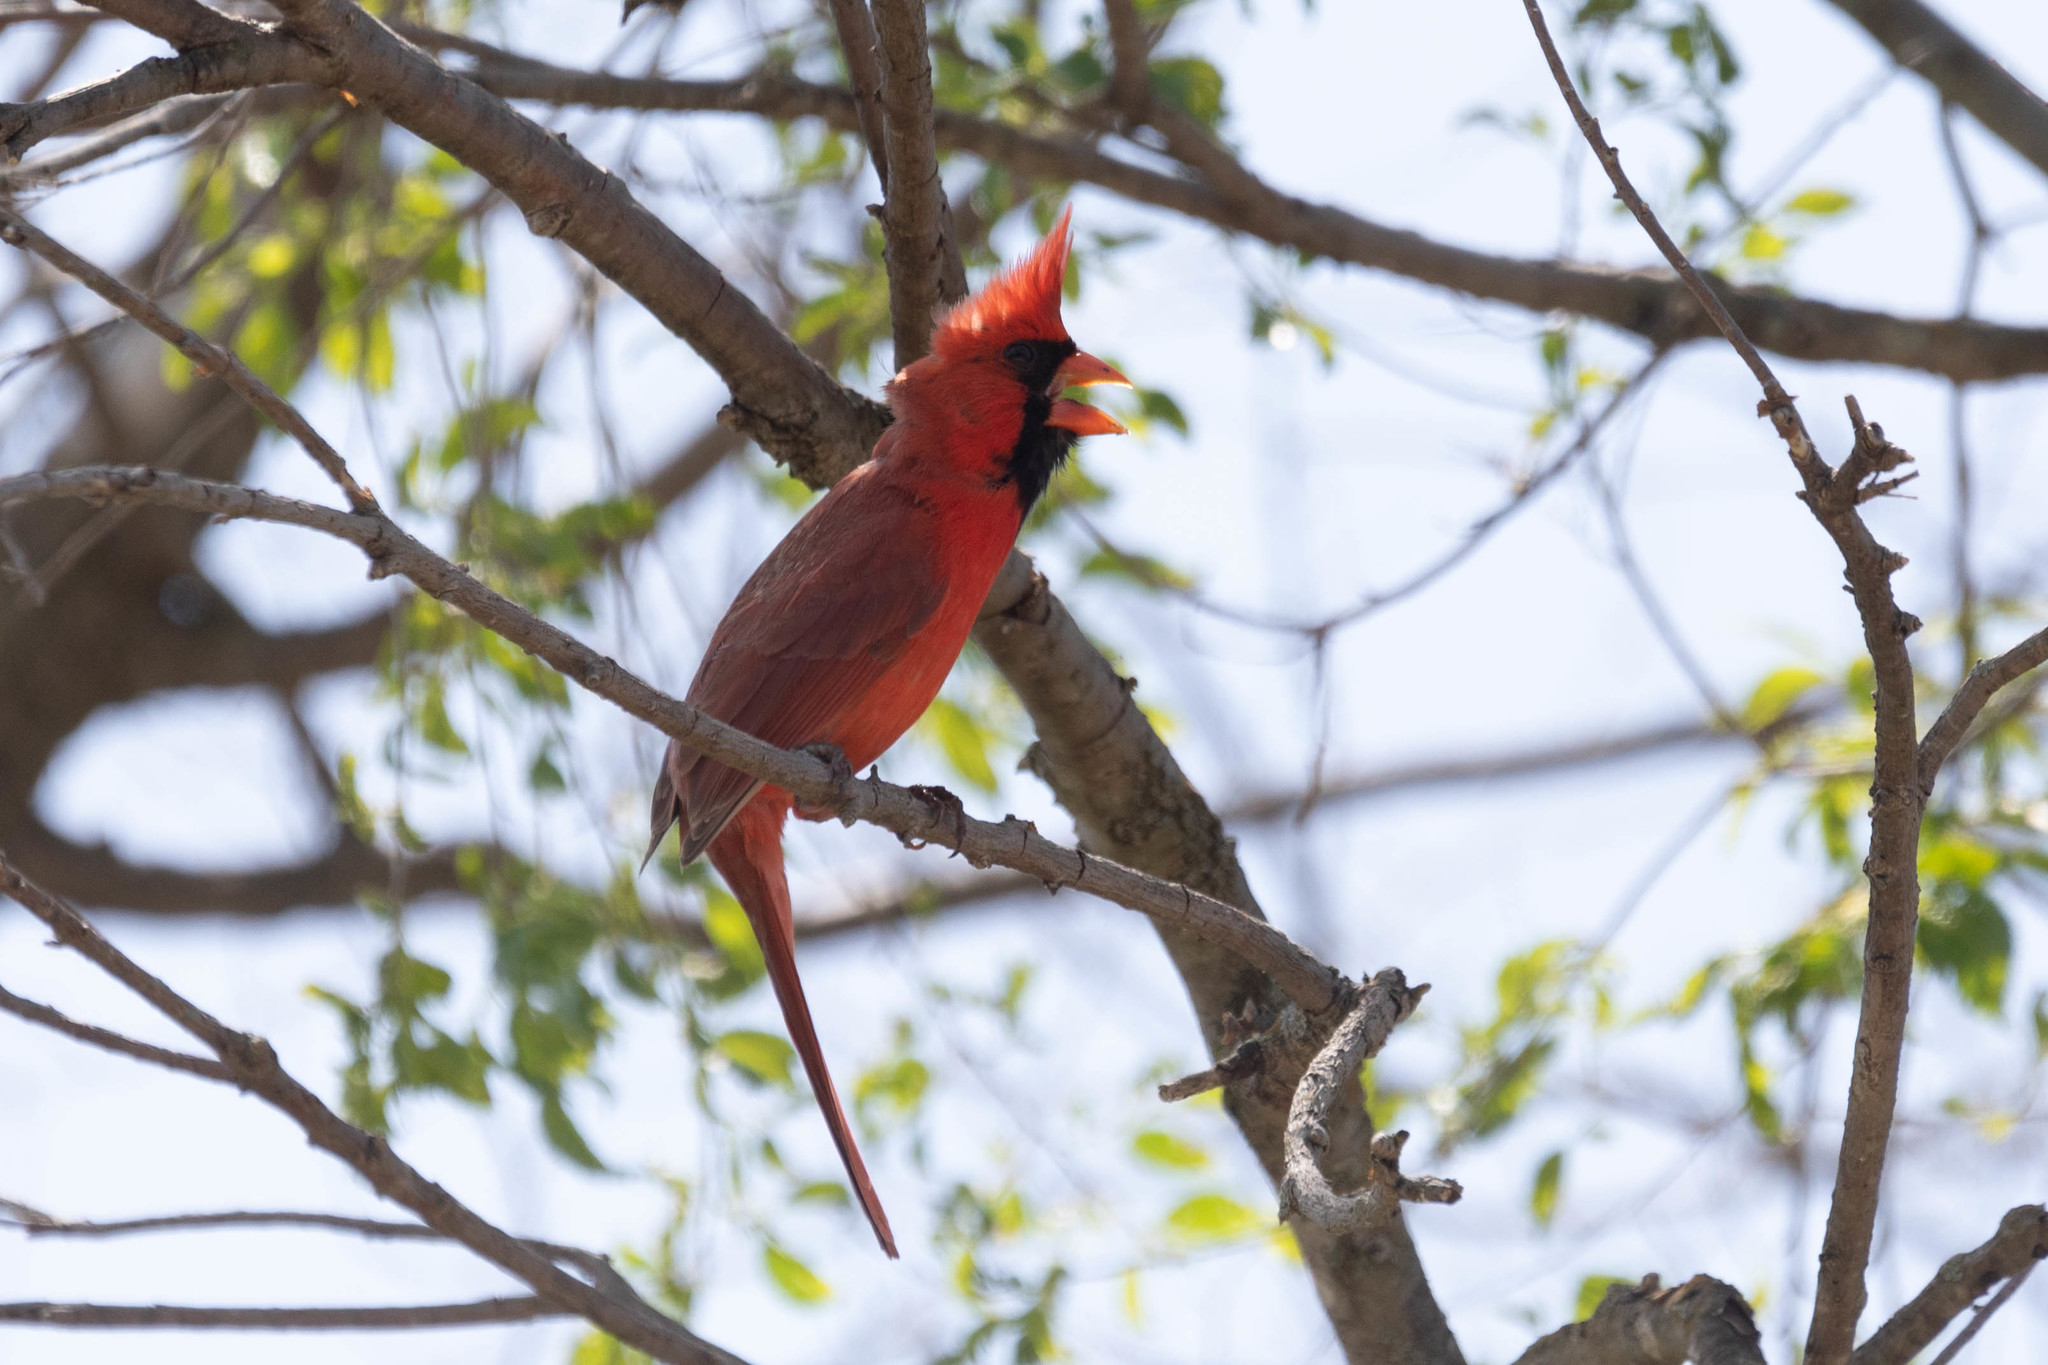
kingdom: Animalia
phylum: Chordata
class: Aves
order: Passeriformes
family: Cardinalidae
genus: Cardinalis
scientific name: Cardinalis cardinalis
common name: Northern cardinal
